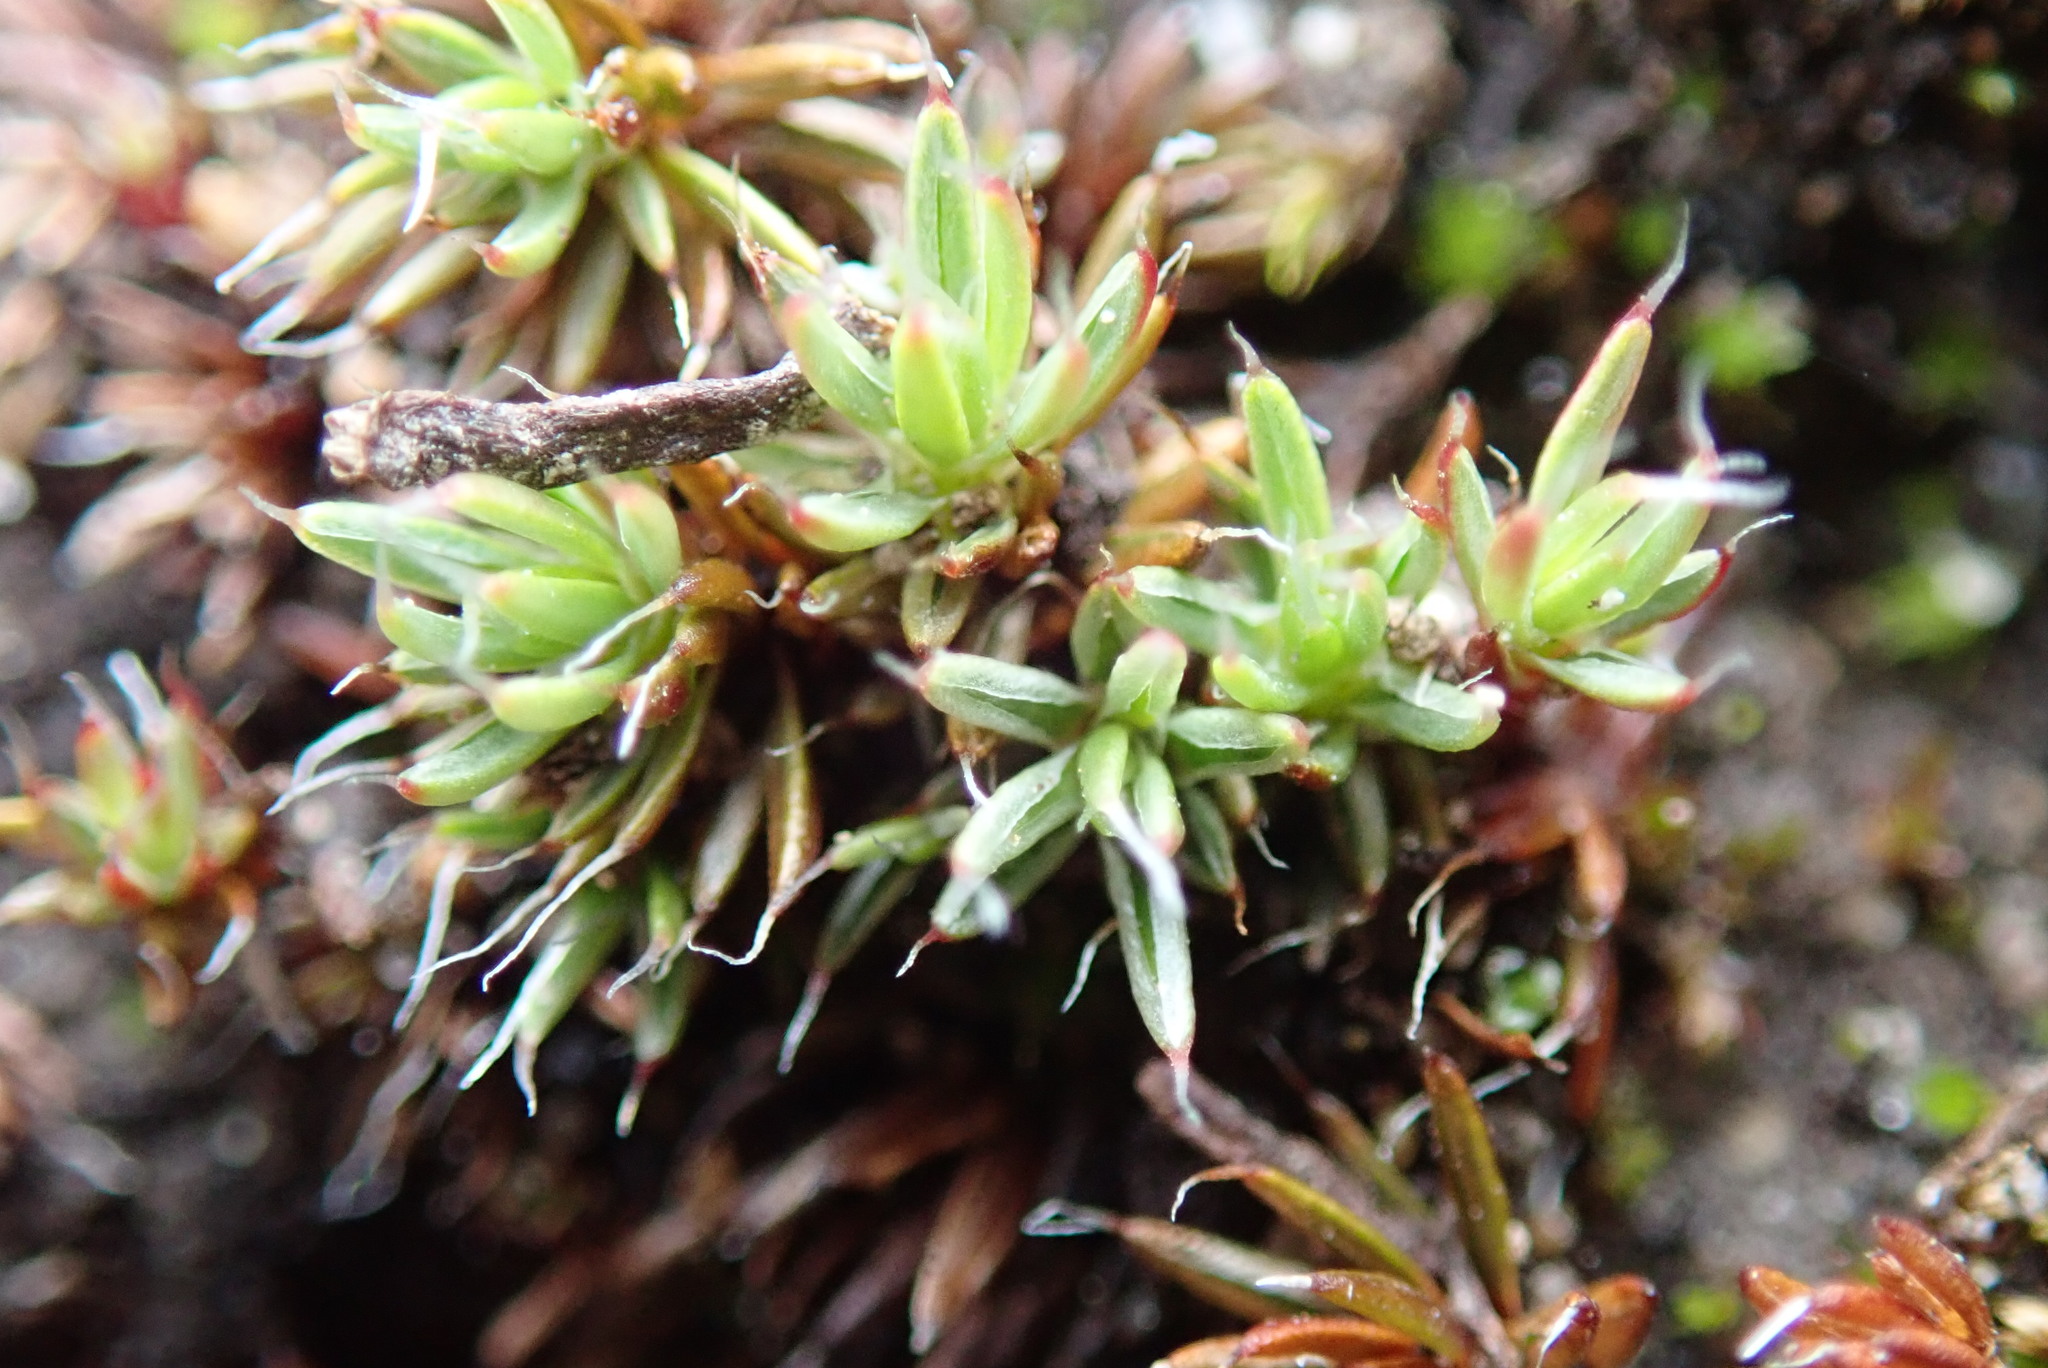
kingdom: Plantae
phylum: Bryophyta
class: Polytrichopsida
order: Polytrichales
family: Polytrichaceae
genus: Polytrichum
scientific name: Polytrichum piliferum
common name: Bristly haircap
